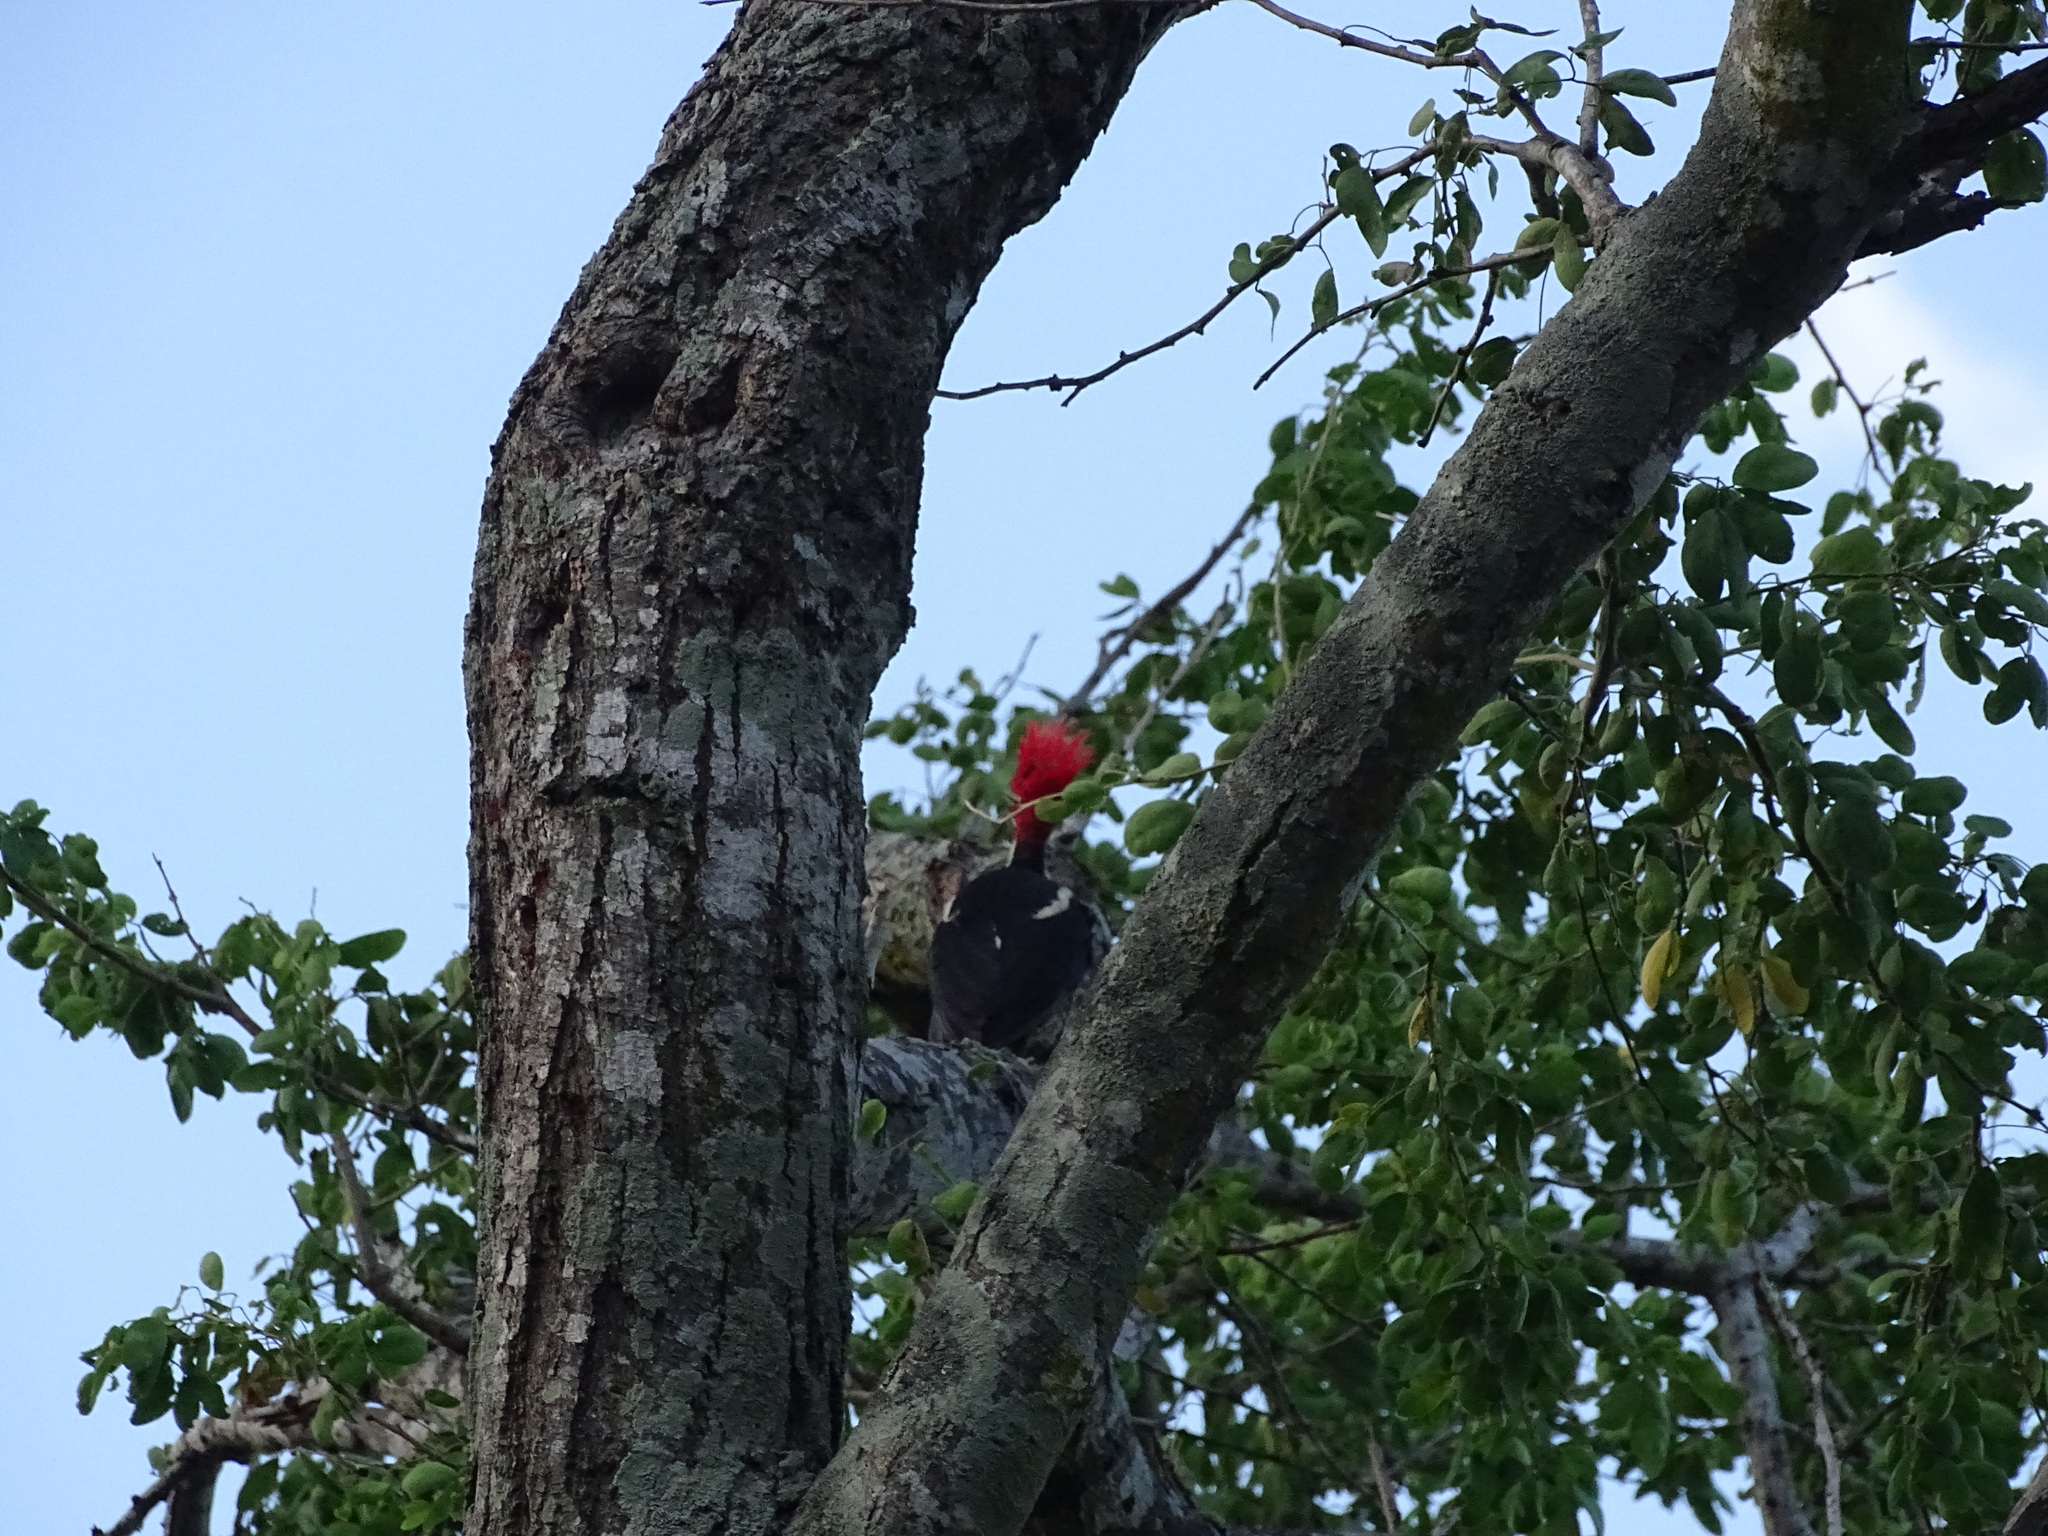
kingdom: Animalia
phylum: Chordata
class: Aves
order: Piciformes
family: Picidae
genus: Dryocopus
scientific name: Dryocopus lineatus
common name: Lineated woodpecker
